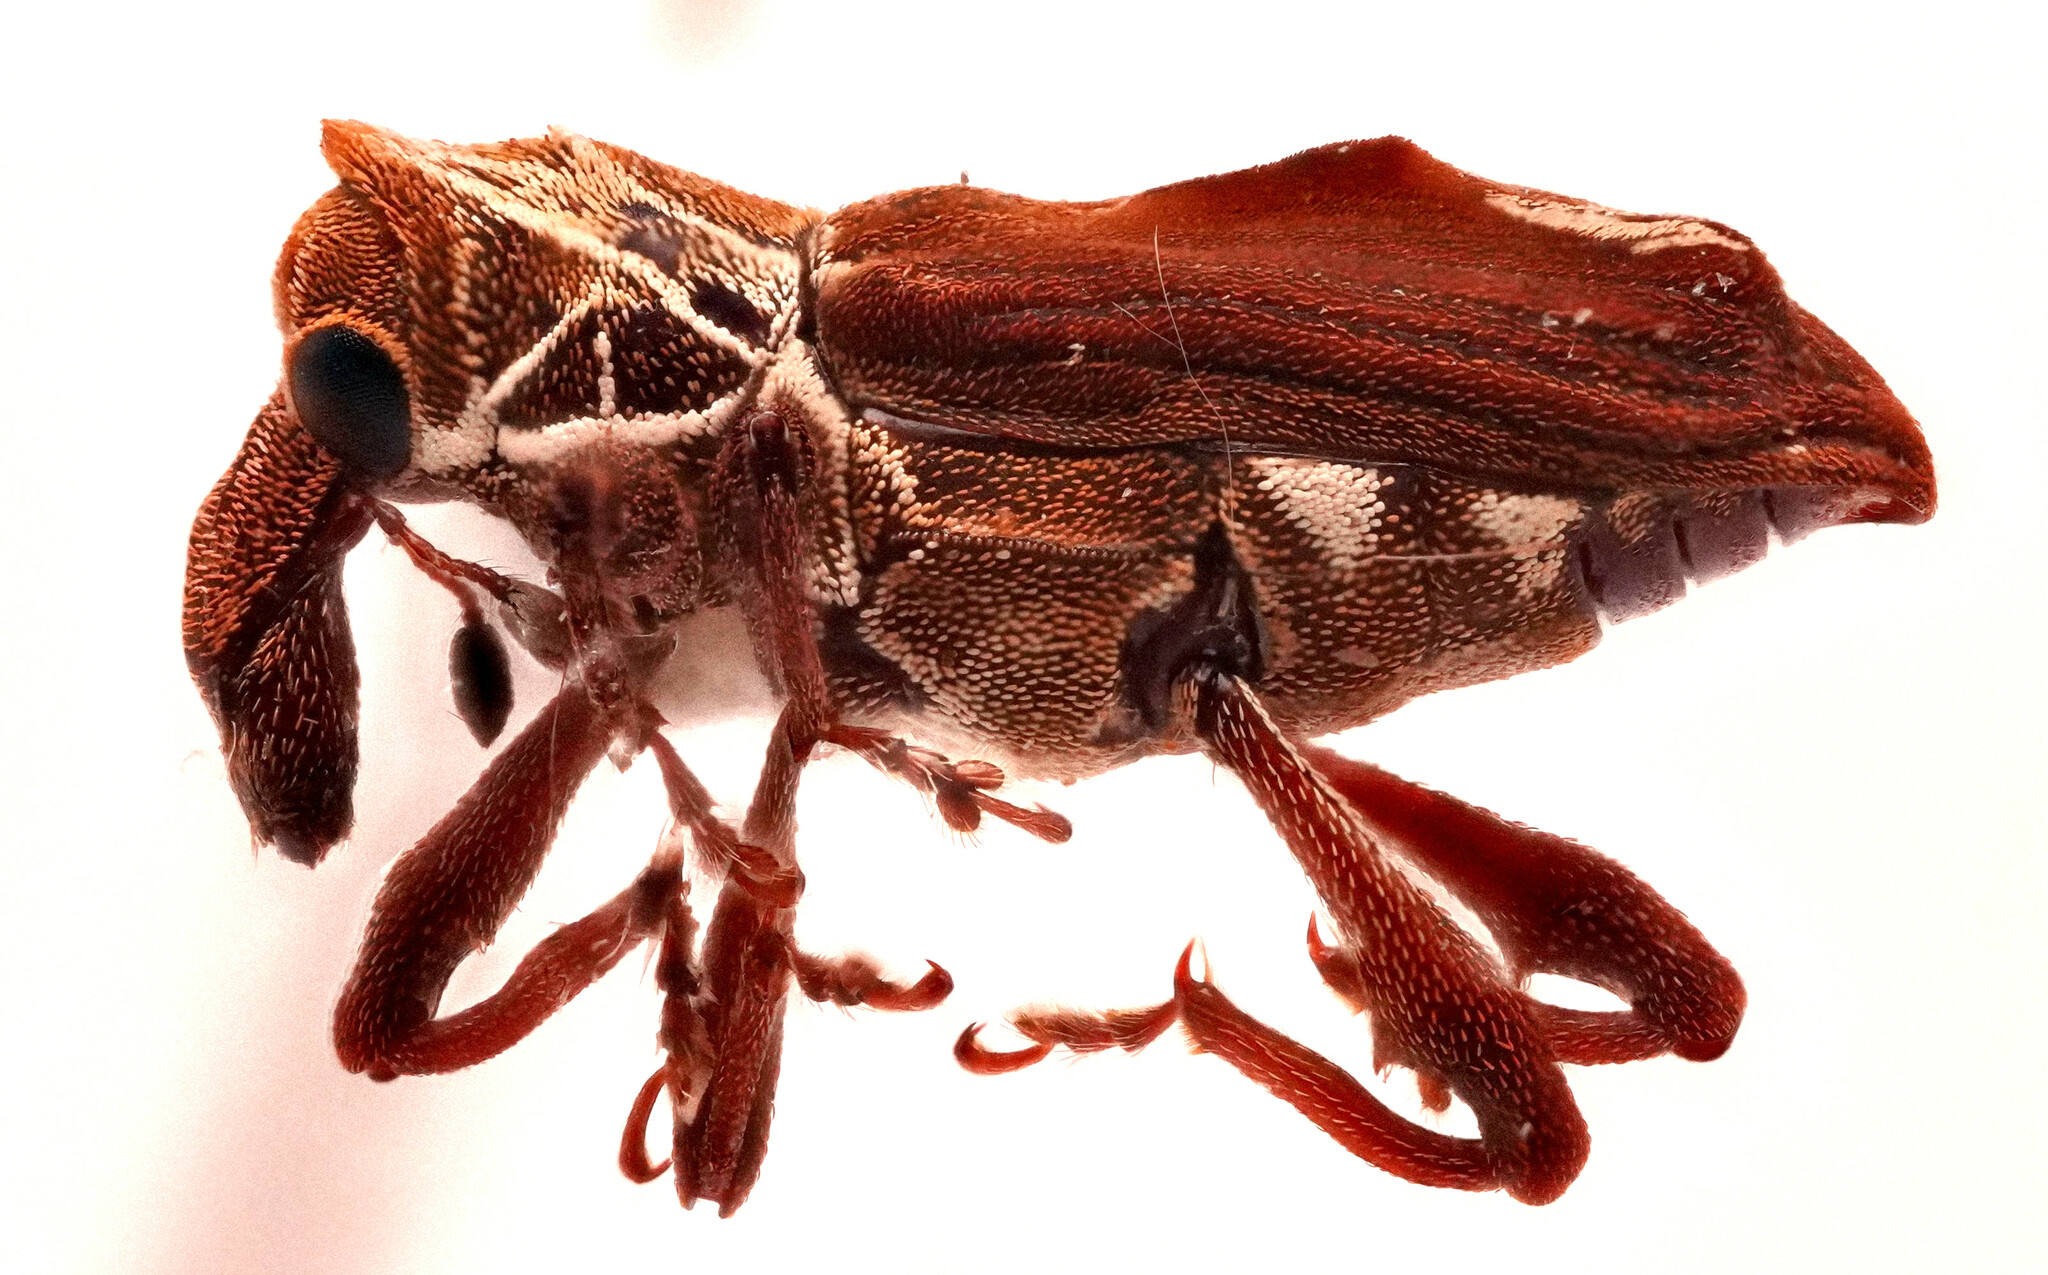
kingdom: Animalia
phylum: Arthropoda
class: Insecta
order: Coleoptera
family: Curculionidae
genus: Palliolatrix
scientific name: Palliolatrix tuberosa
